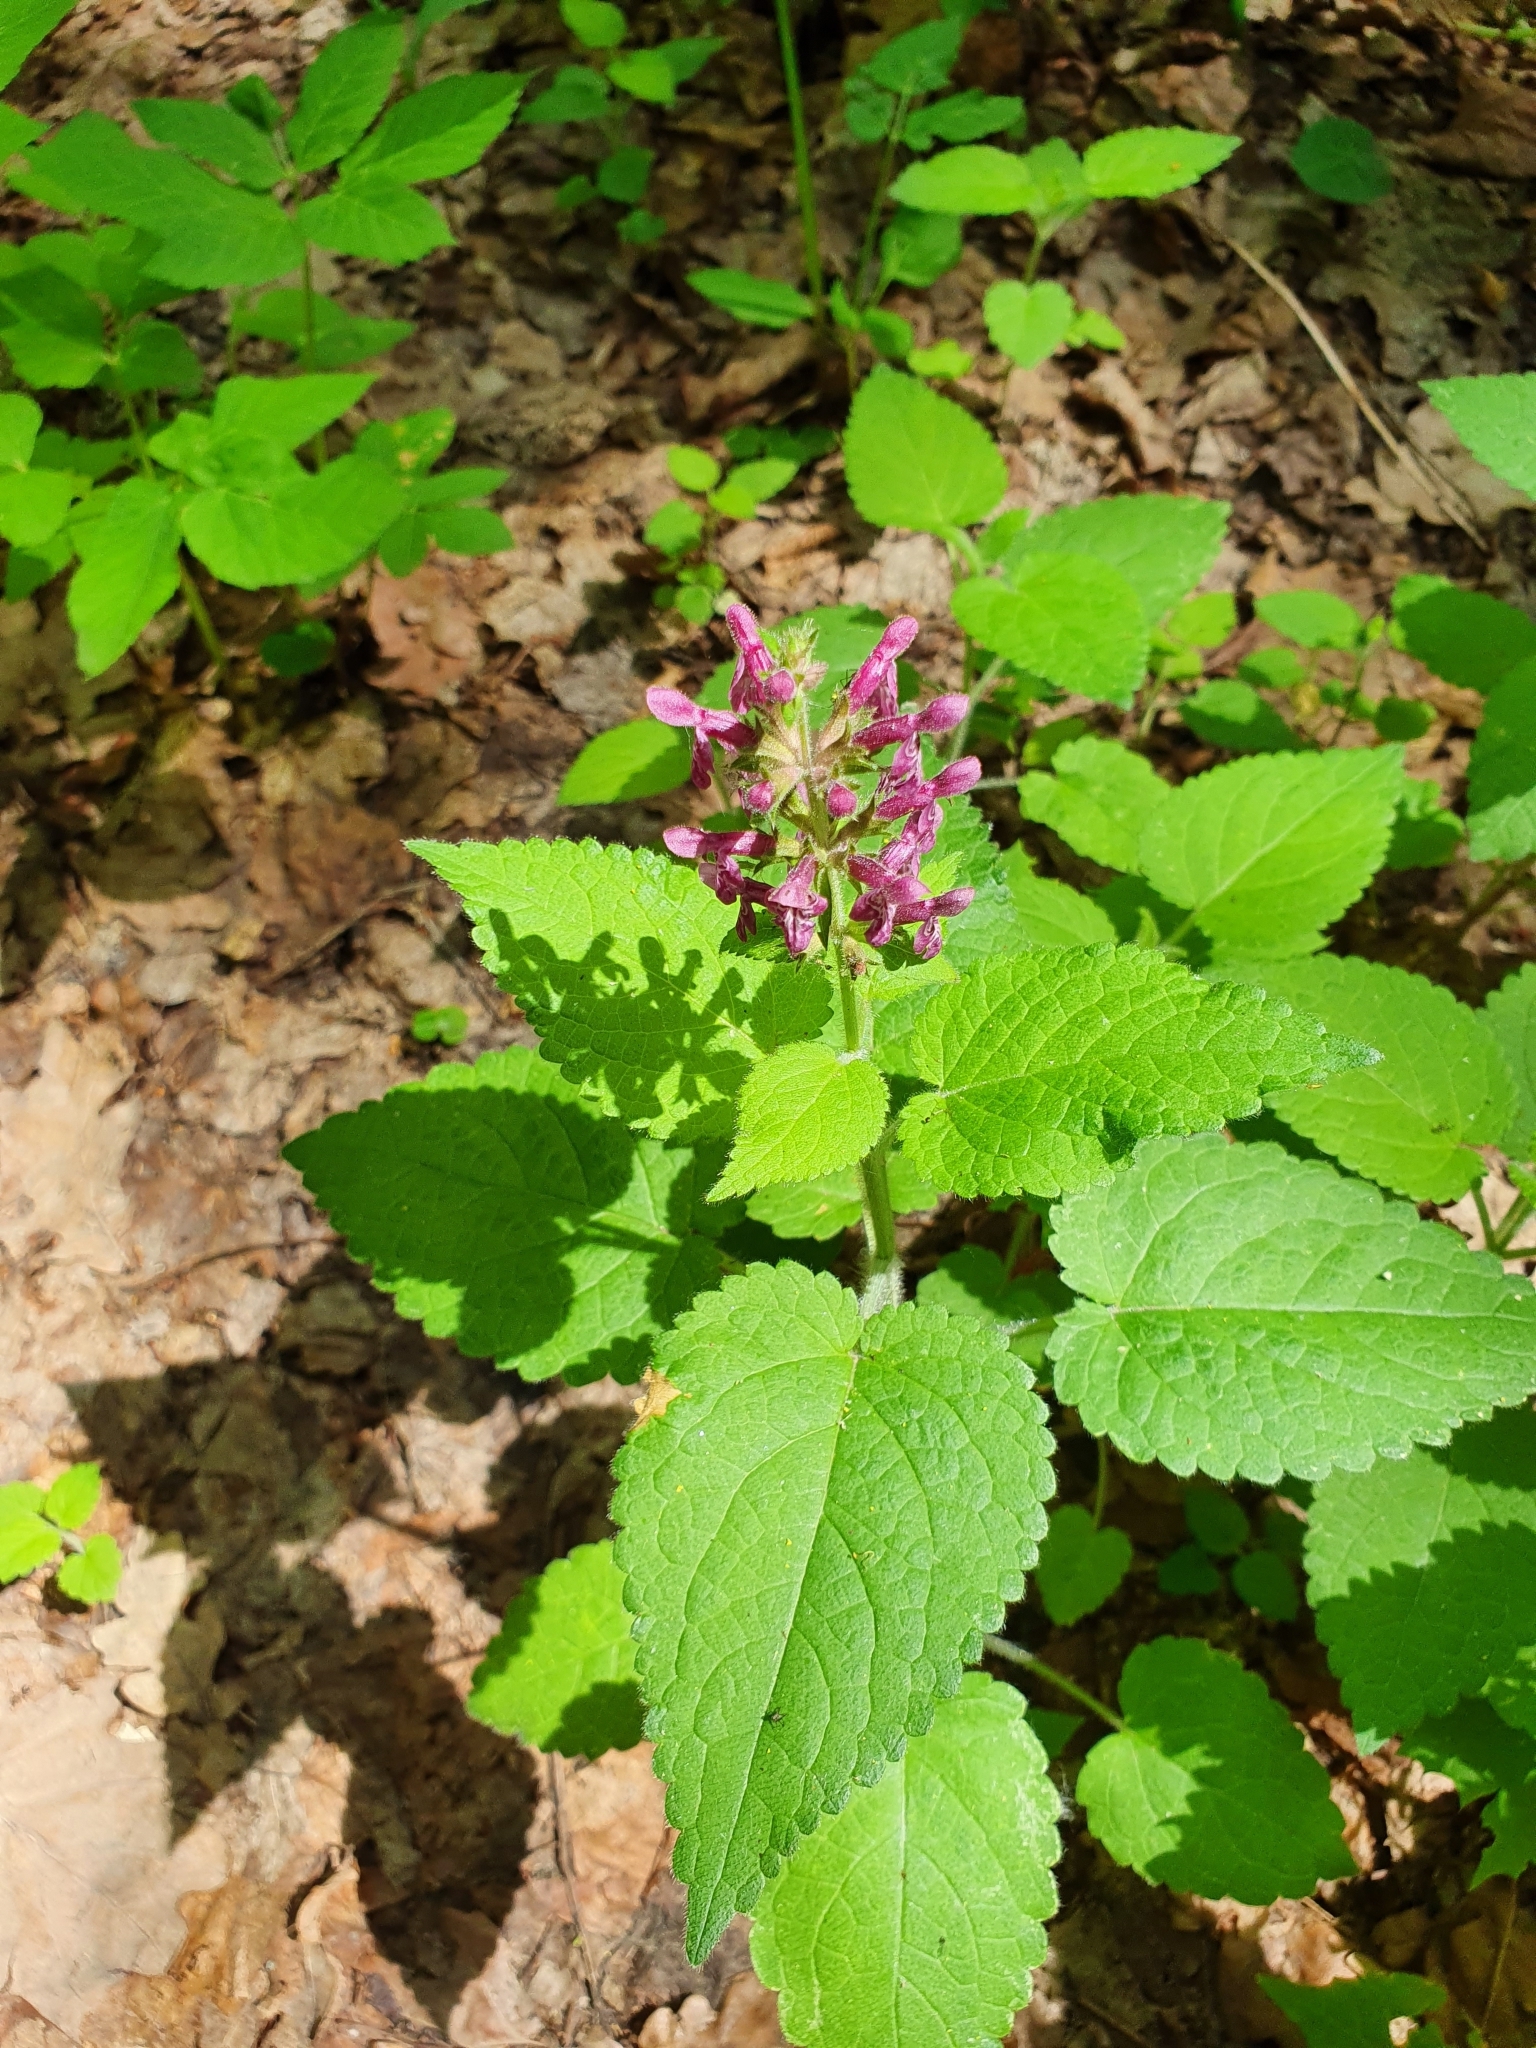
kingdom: Plantae
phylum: Tracheophyta
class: Magnoliopsida
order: Lamiales
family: Lamiaceae
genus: Stachys
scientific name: Stachys sylvatica
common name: Hedge woundwort
